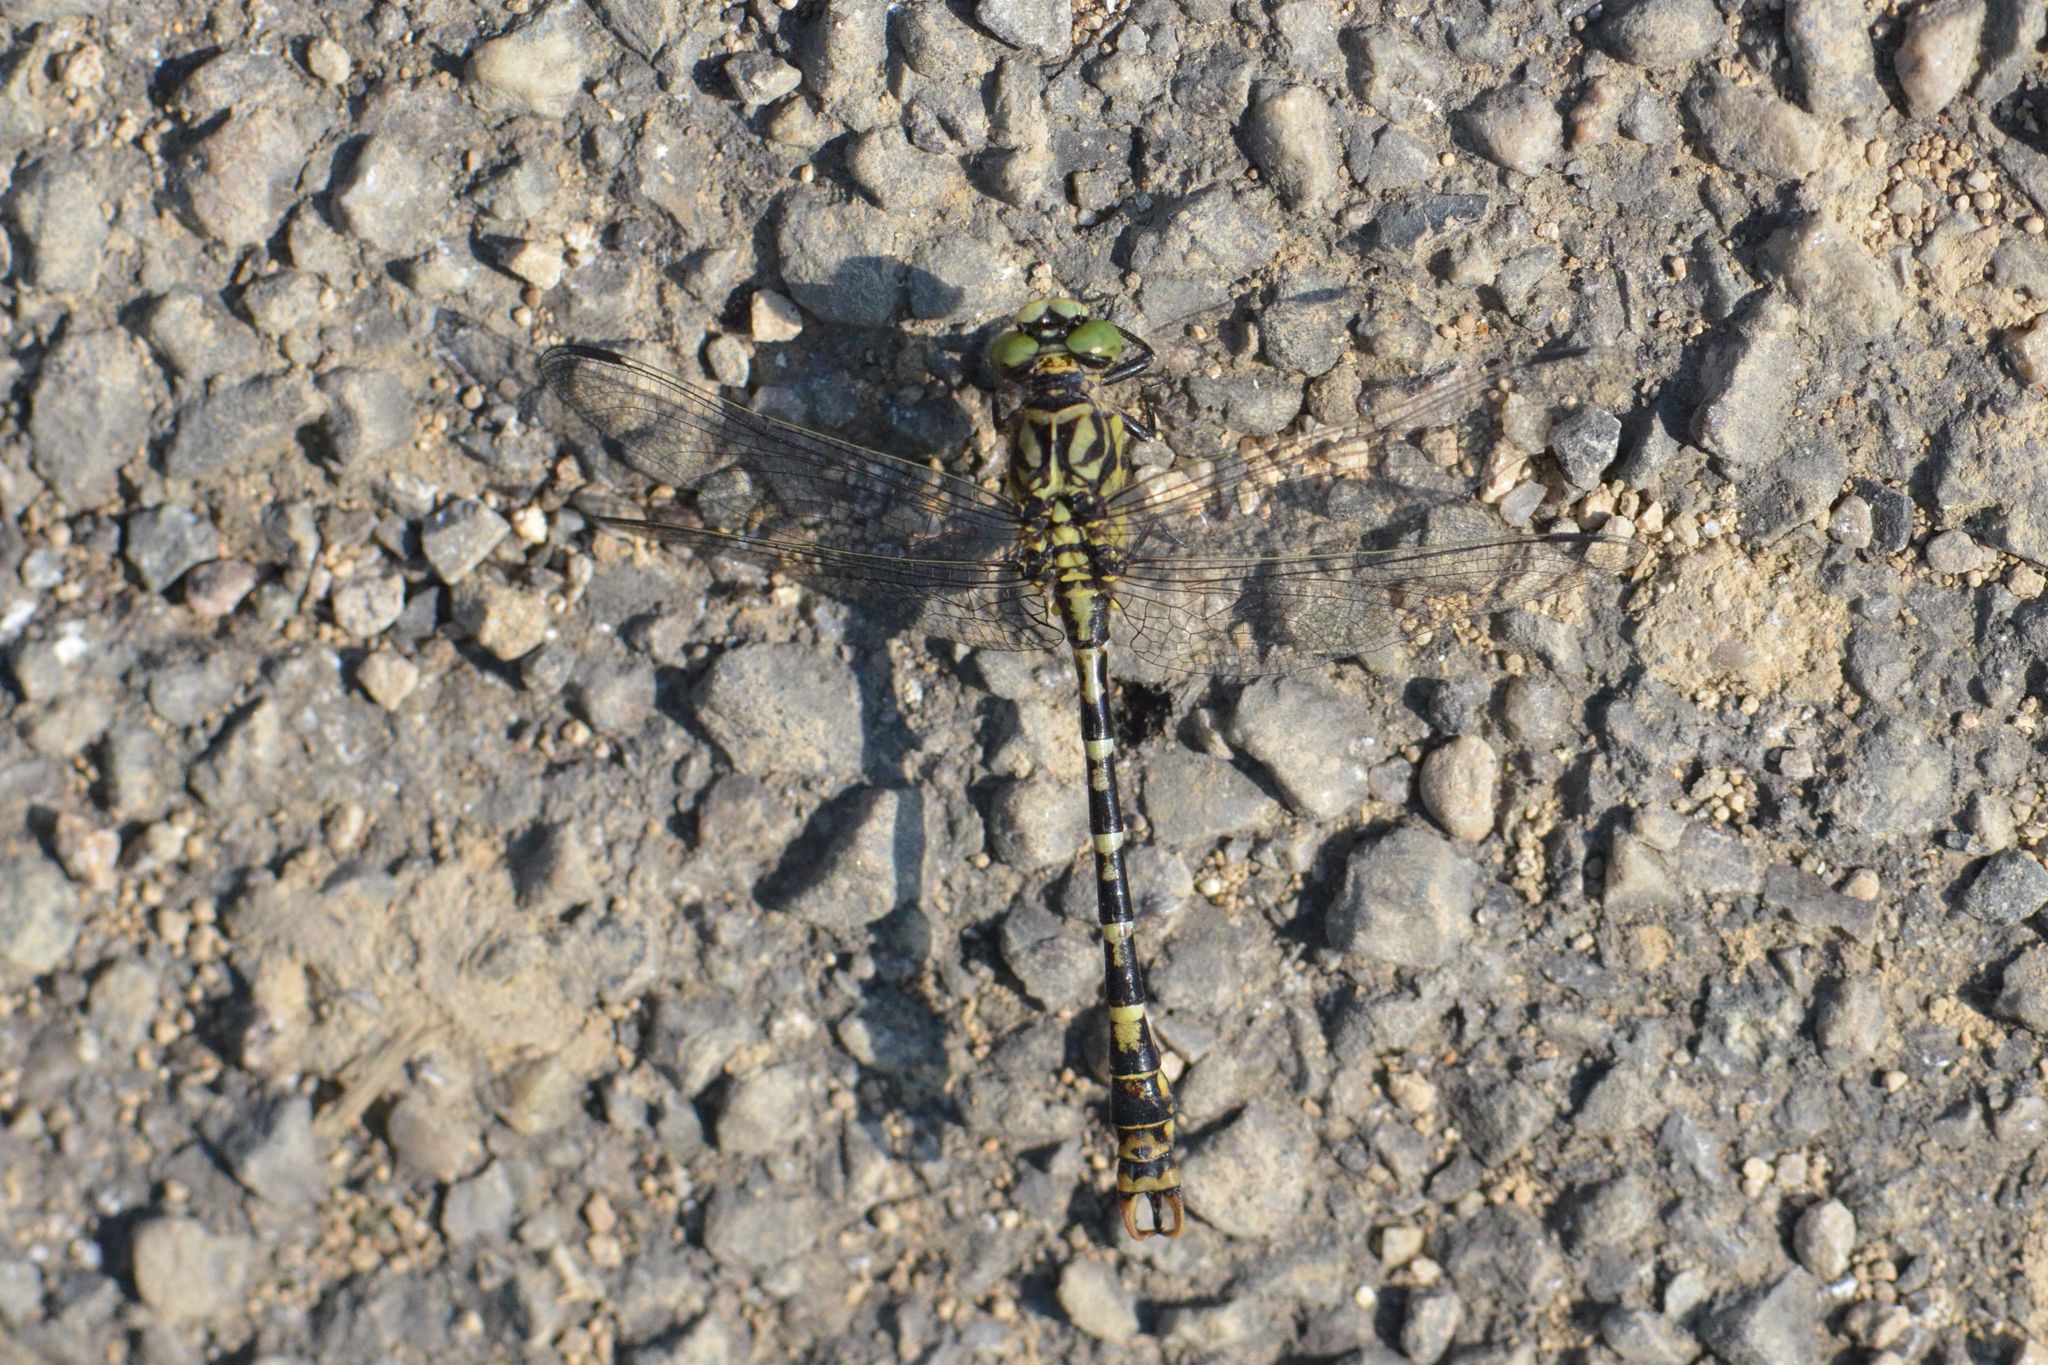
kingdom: Animalia
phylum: Arthropoda
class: Insecta
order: Odonata
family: Gomphidae
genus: Onychogomphus
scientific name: Onychogomphus forcipatus
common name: Small pincertail
